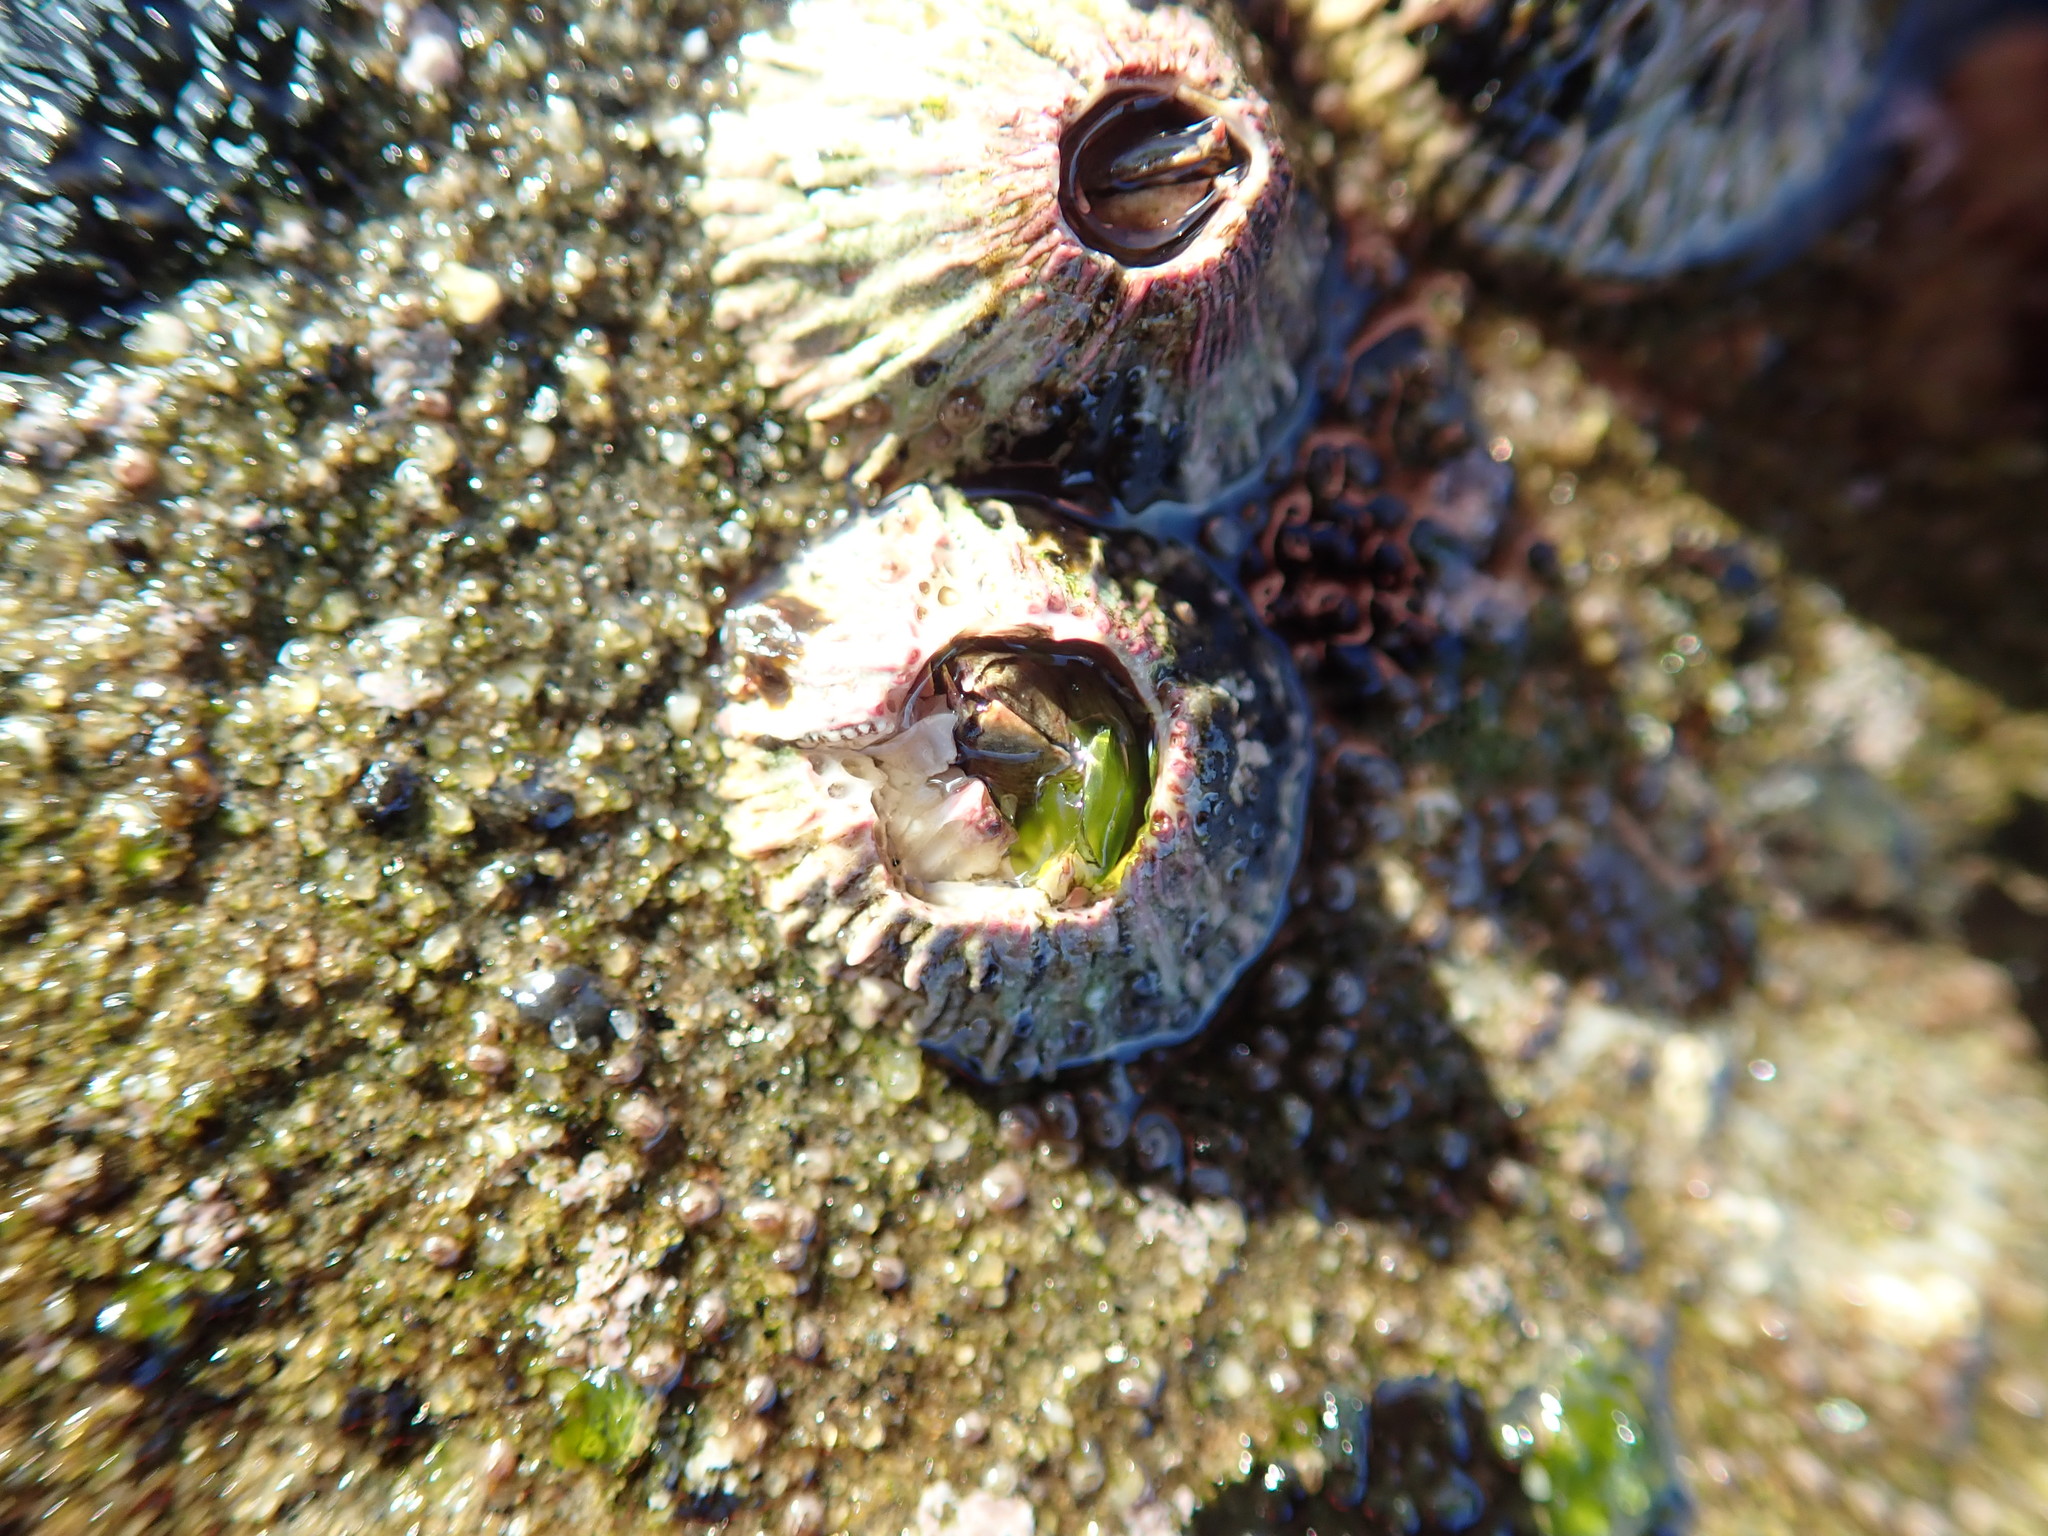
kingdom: Animalia
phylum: Arthropoda
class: Maxillopoda
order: Sessilia
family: Tetraclitidae
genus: Tetraclita
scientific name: Tetraclita rubescens
